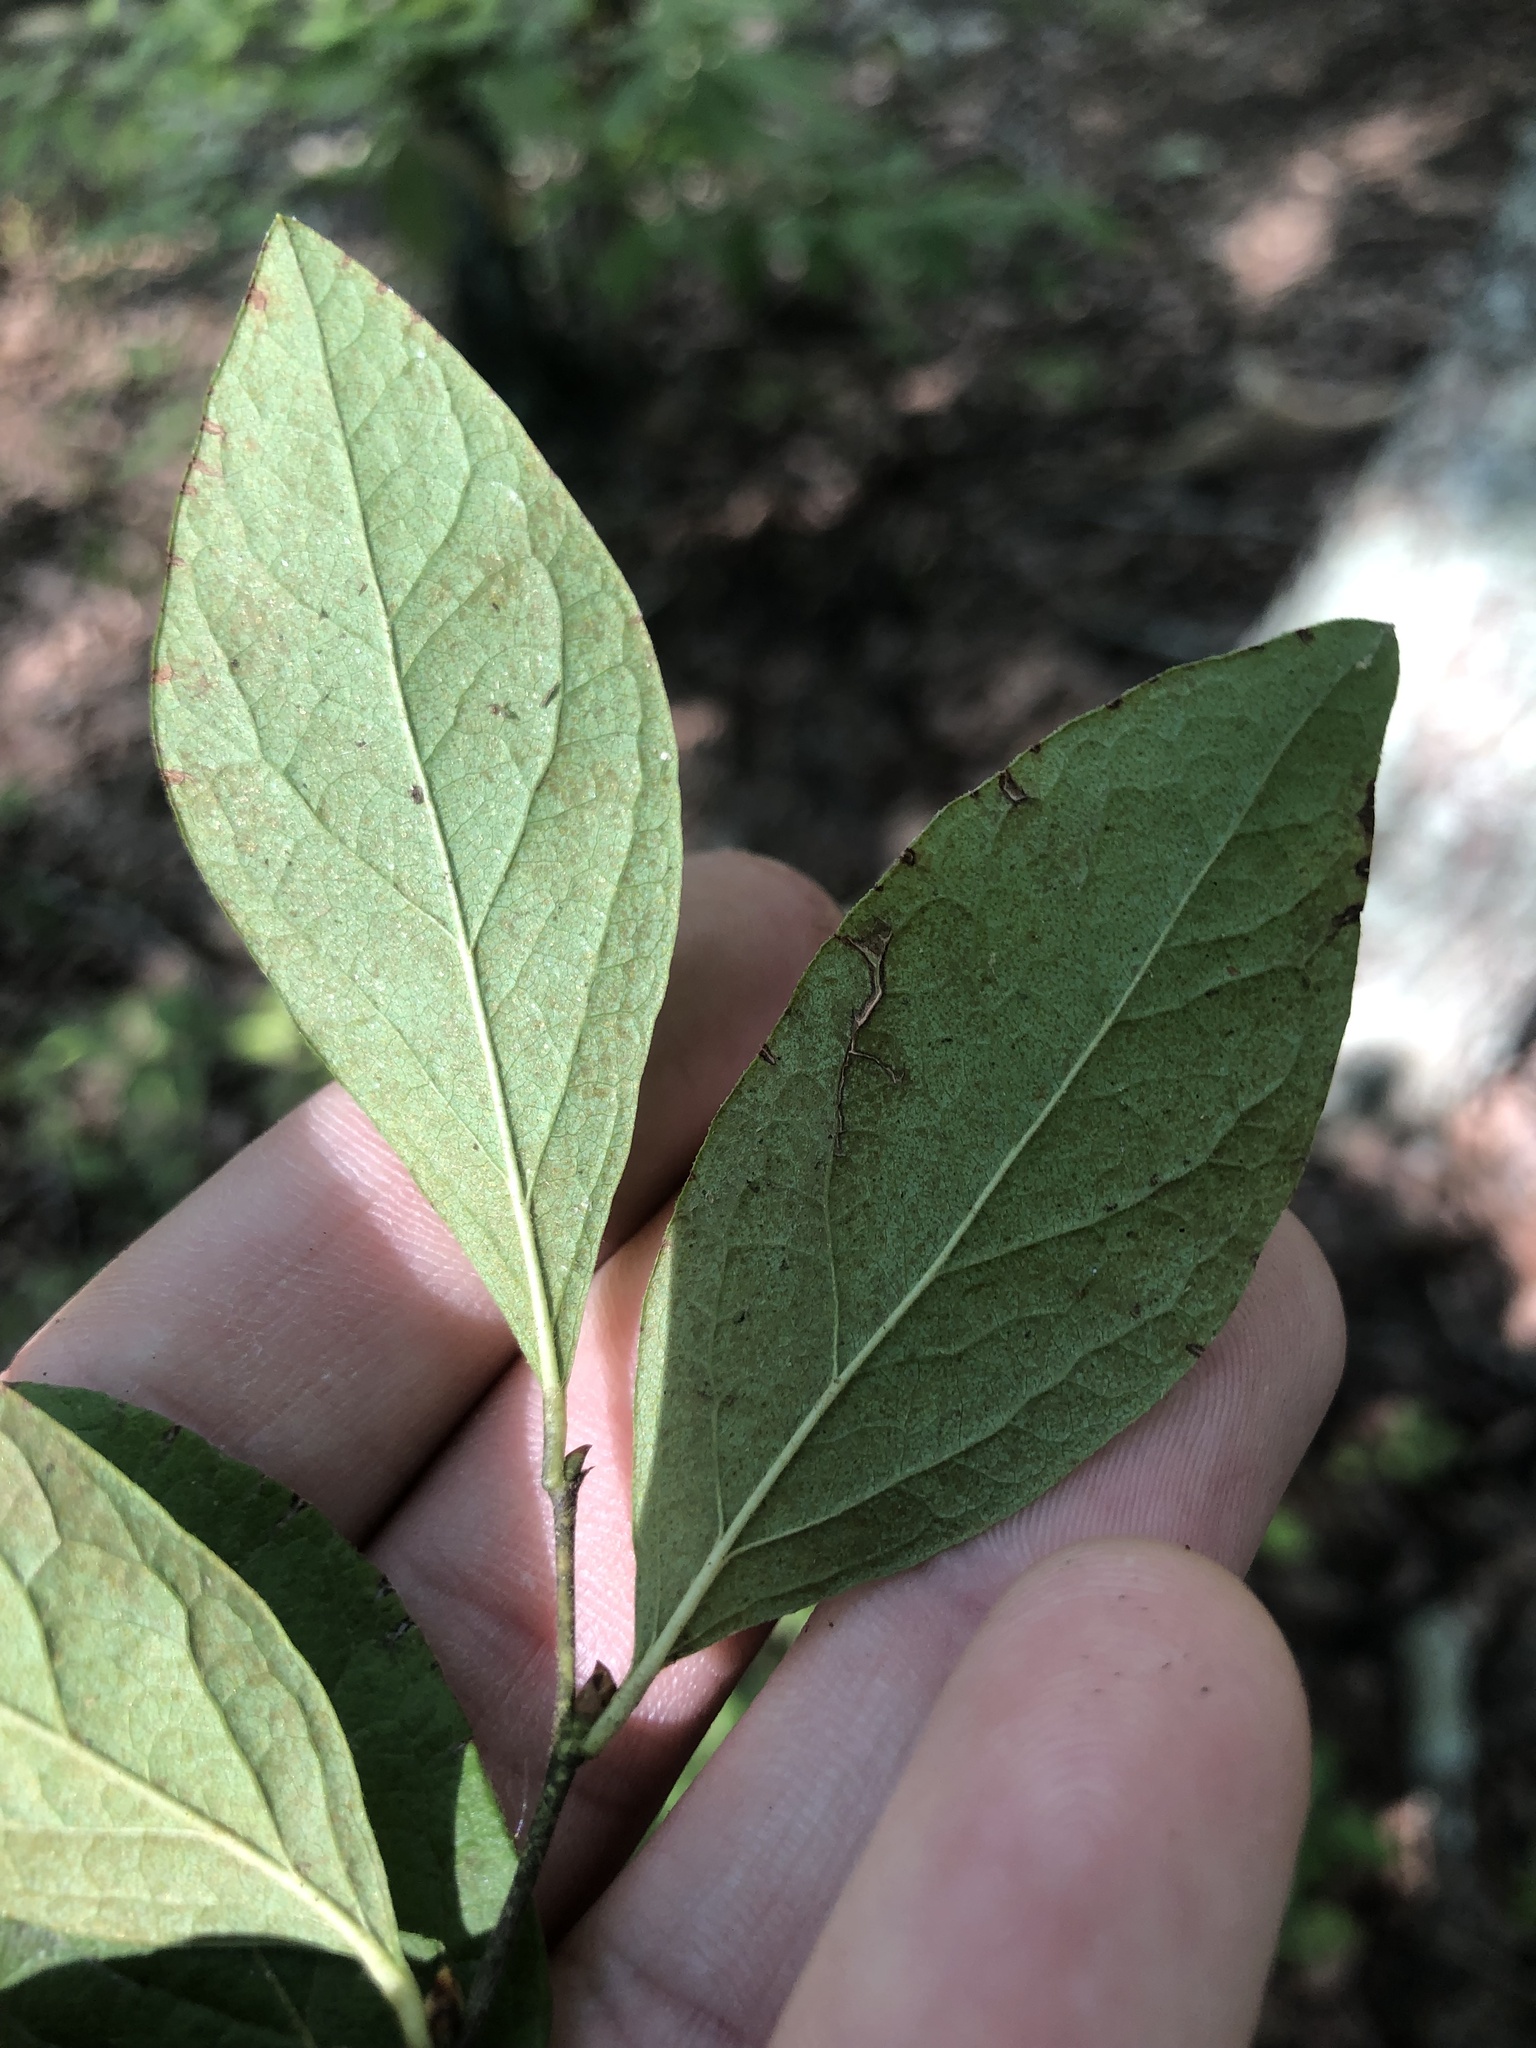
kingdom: Plantae
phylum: Tracheophyta
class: Magnoliopsida
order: Ericales
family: Ericaceae
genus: Gaylussacia
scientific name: Gaylussacia baccata
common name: Black huckleberry
